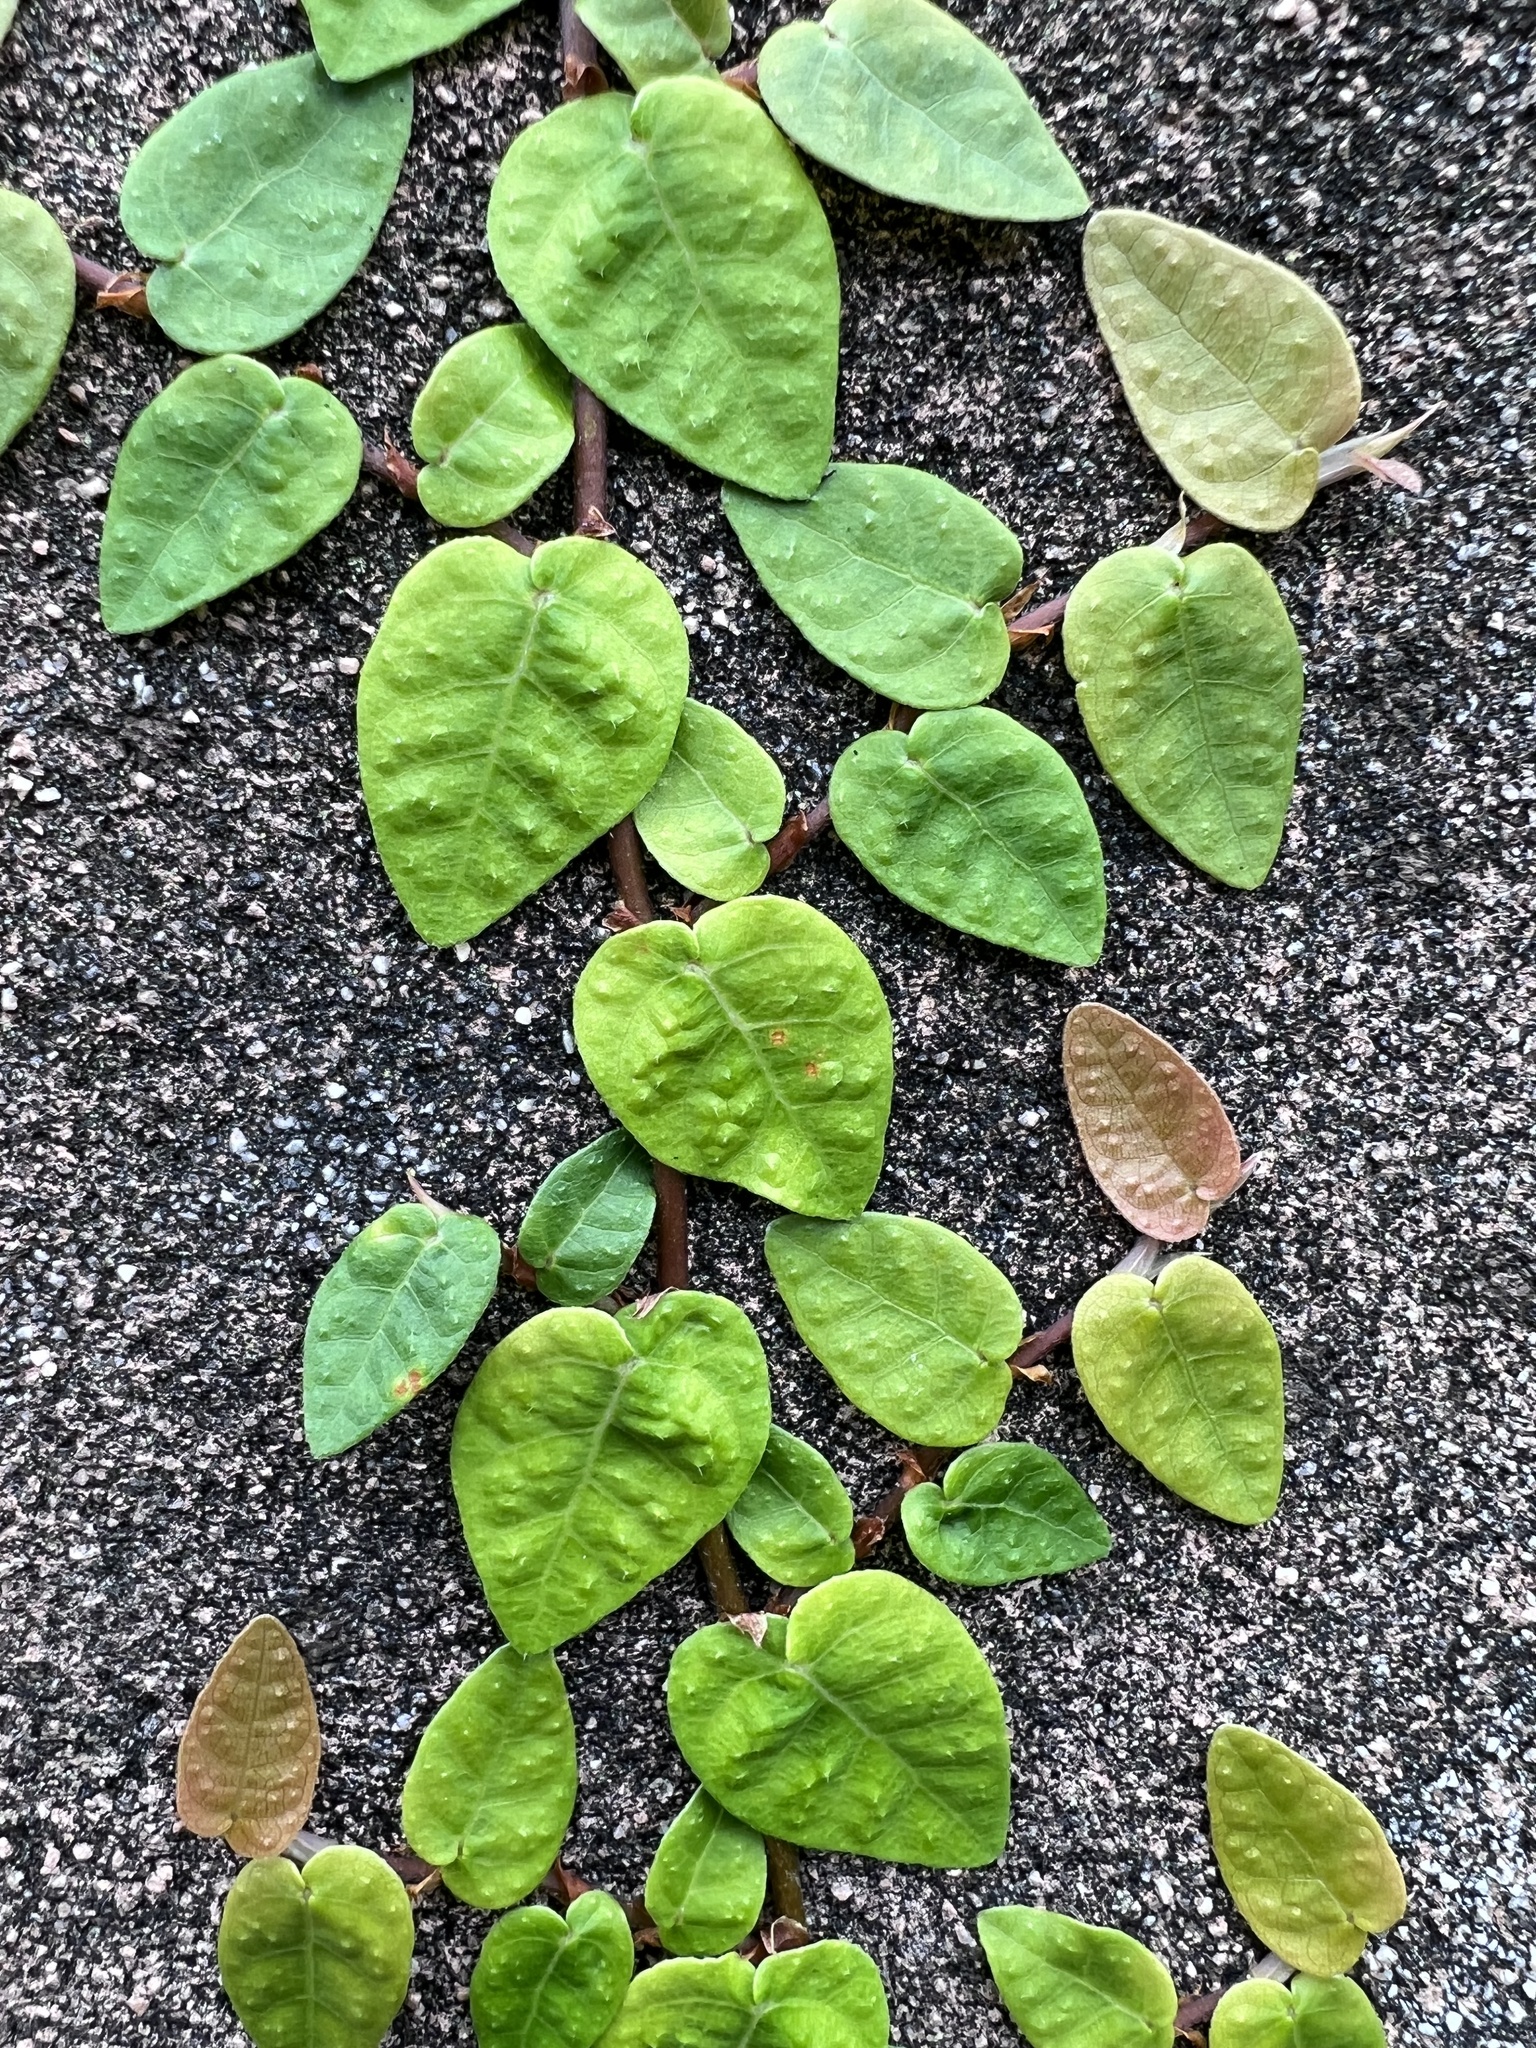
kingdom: Plantae
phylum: Tracheophyta
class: Magnoliopsida
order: Rosales
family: Moraceae
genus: Ficus
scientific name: Ficus pumila
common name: Climbingfig
